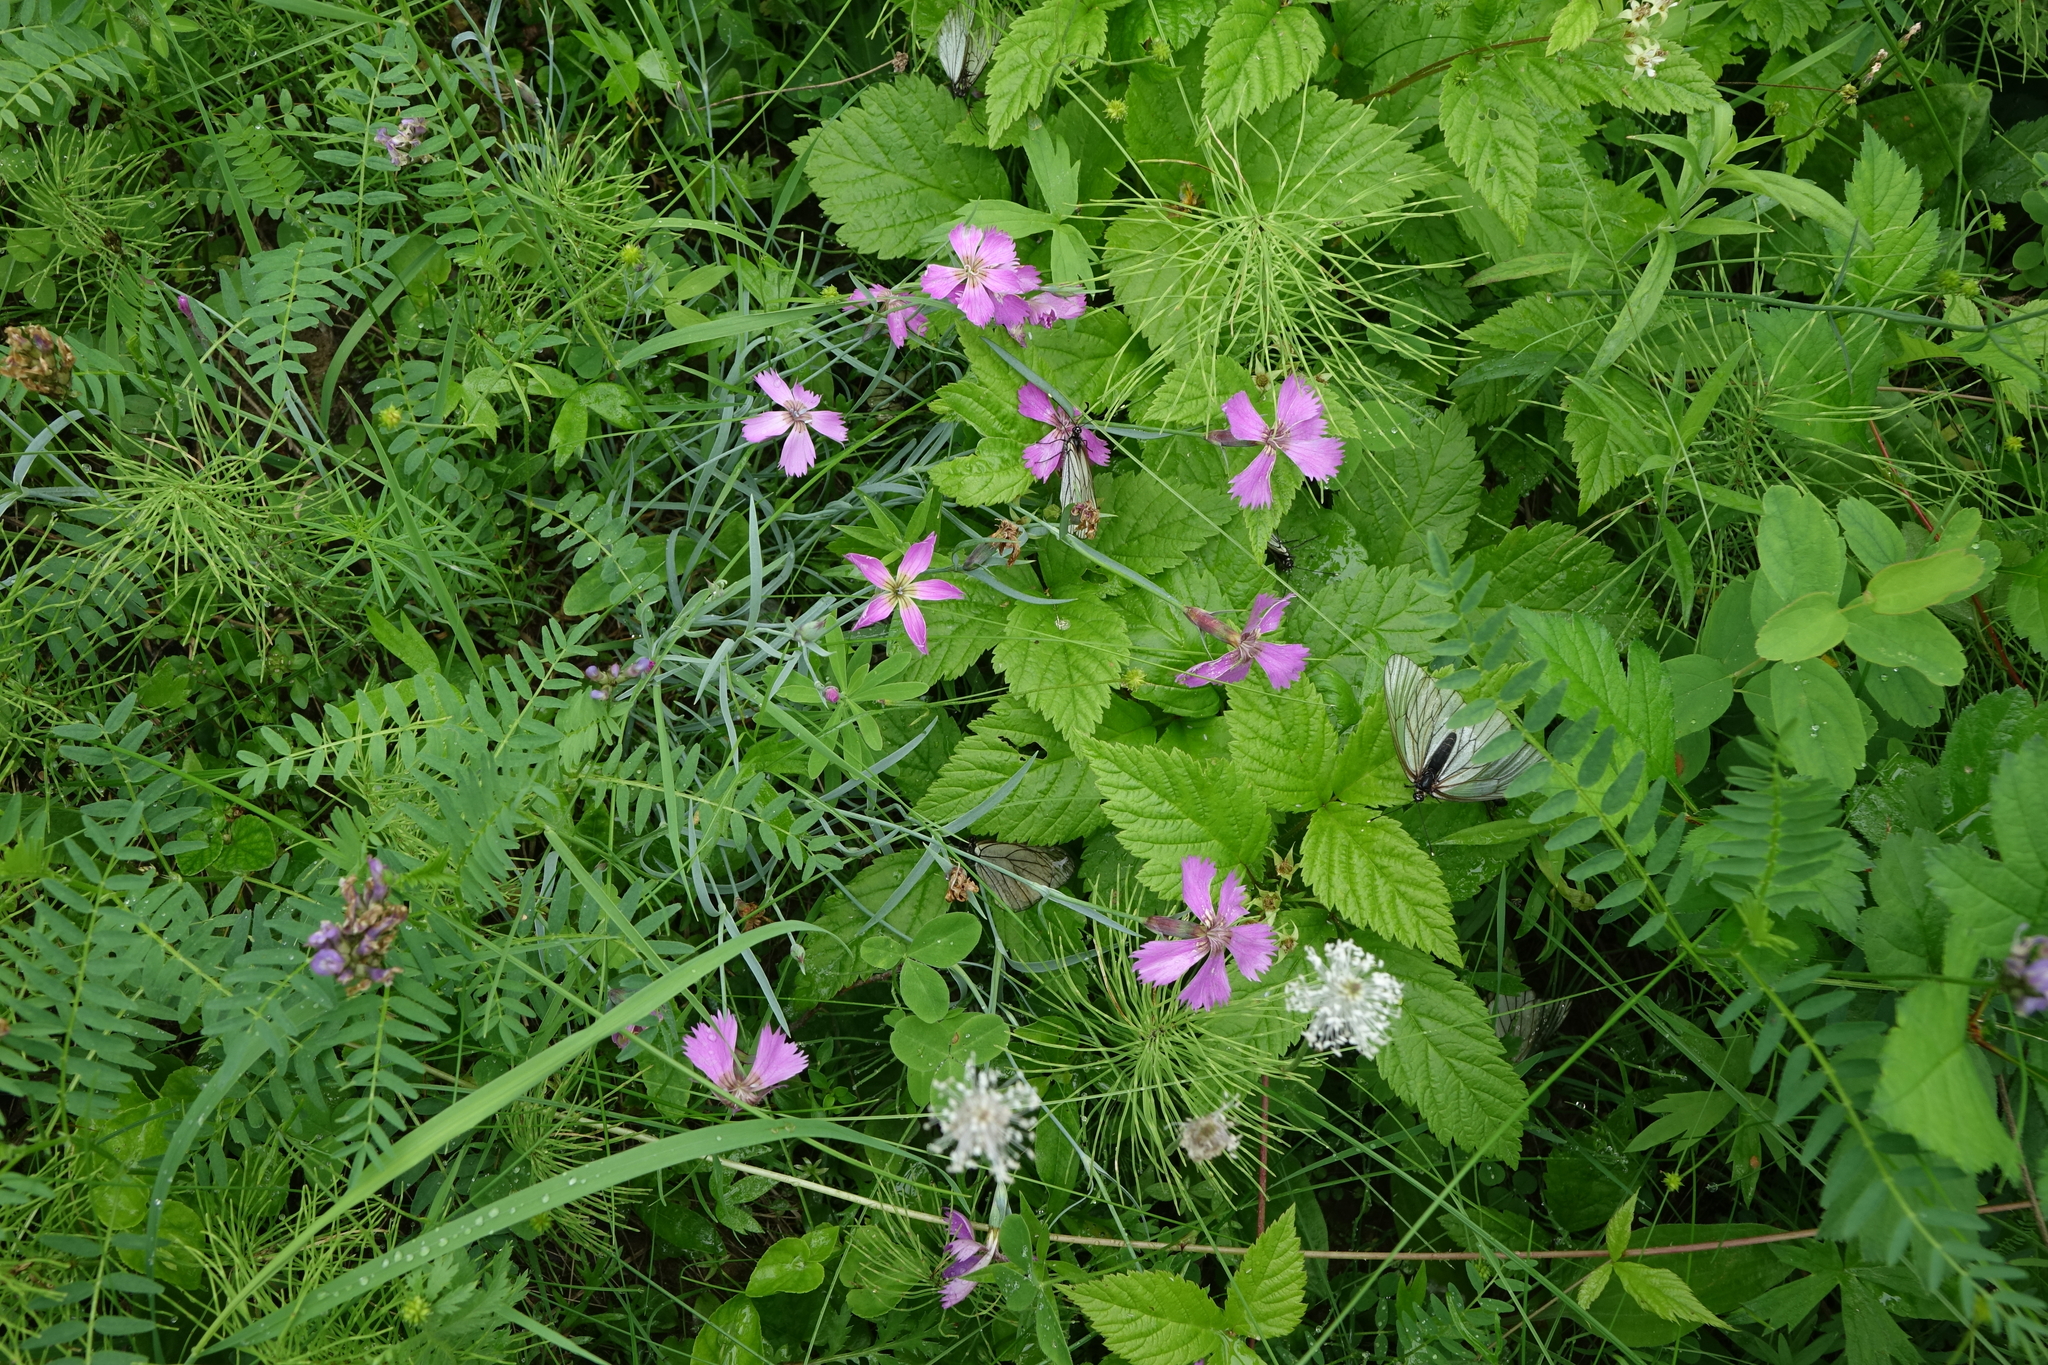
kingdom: Plantae
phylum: Tracheophyta
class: Magnoliopsida
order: Caryophyllales
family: Caryophyllaceae
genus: Dianthus
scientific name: Dianthus repens
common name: Northern pink
